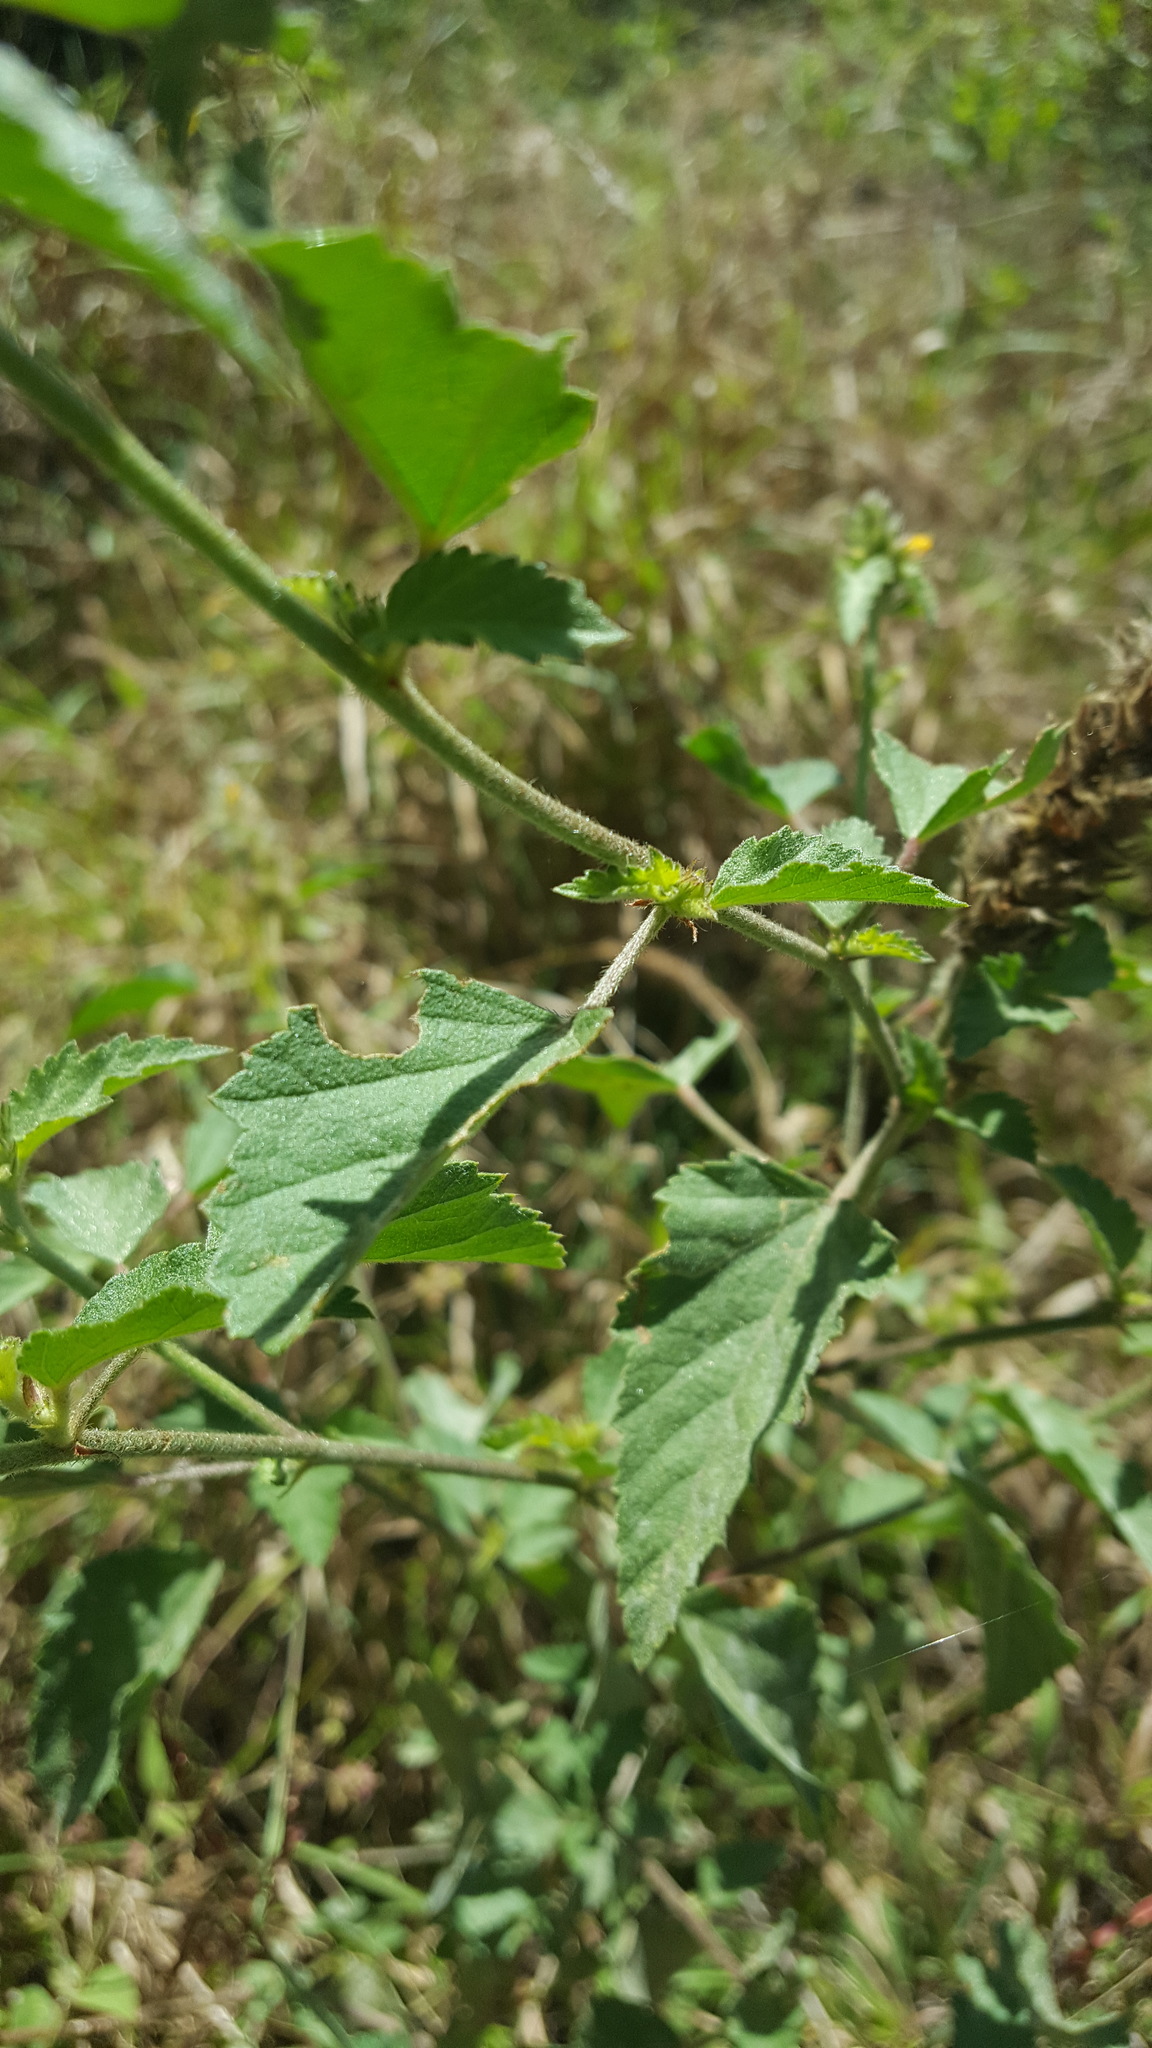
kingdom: Plantae
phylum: Tracheophyta
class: Magnoliopsida
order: Malvales
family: Malvaceae
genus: Malvastrum
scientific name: Malvastrum americanum
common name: Spiked malvastrum
